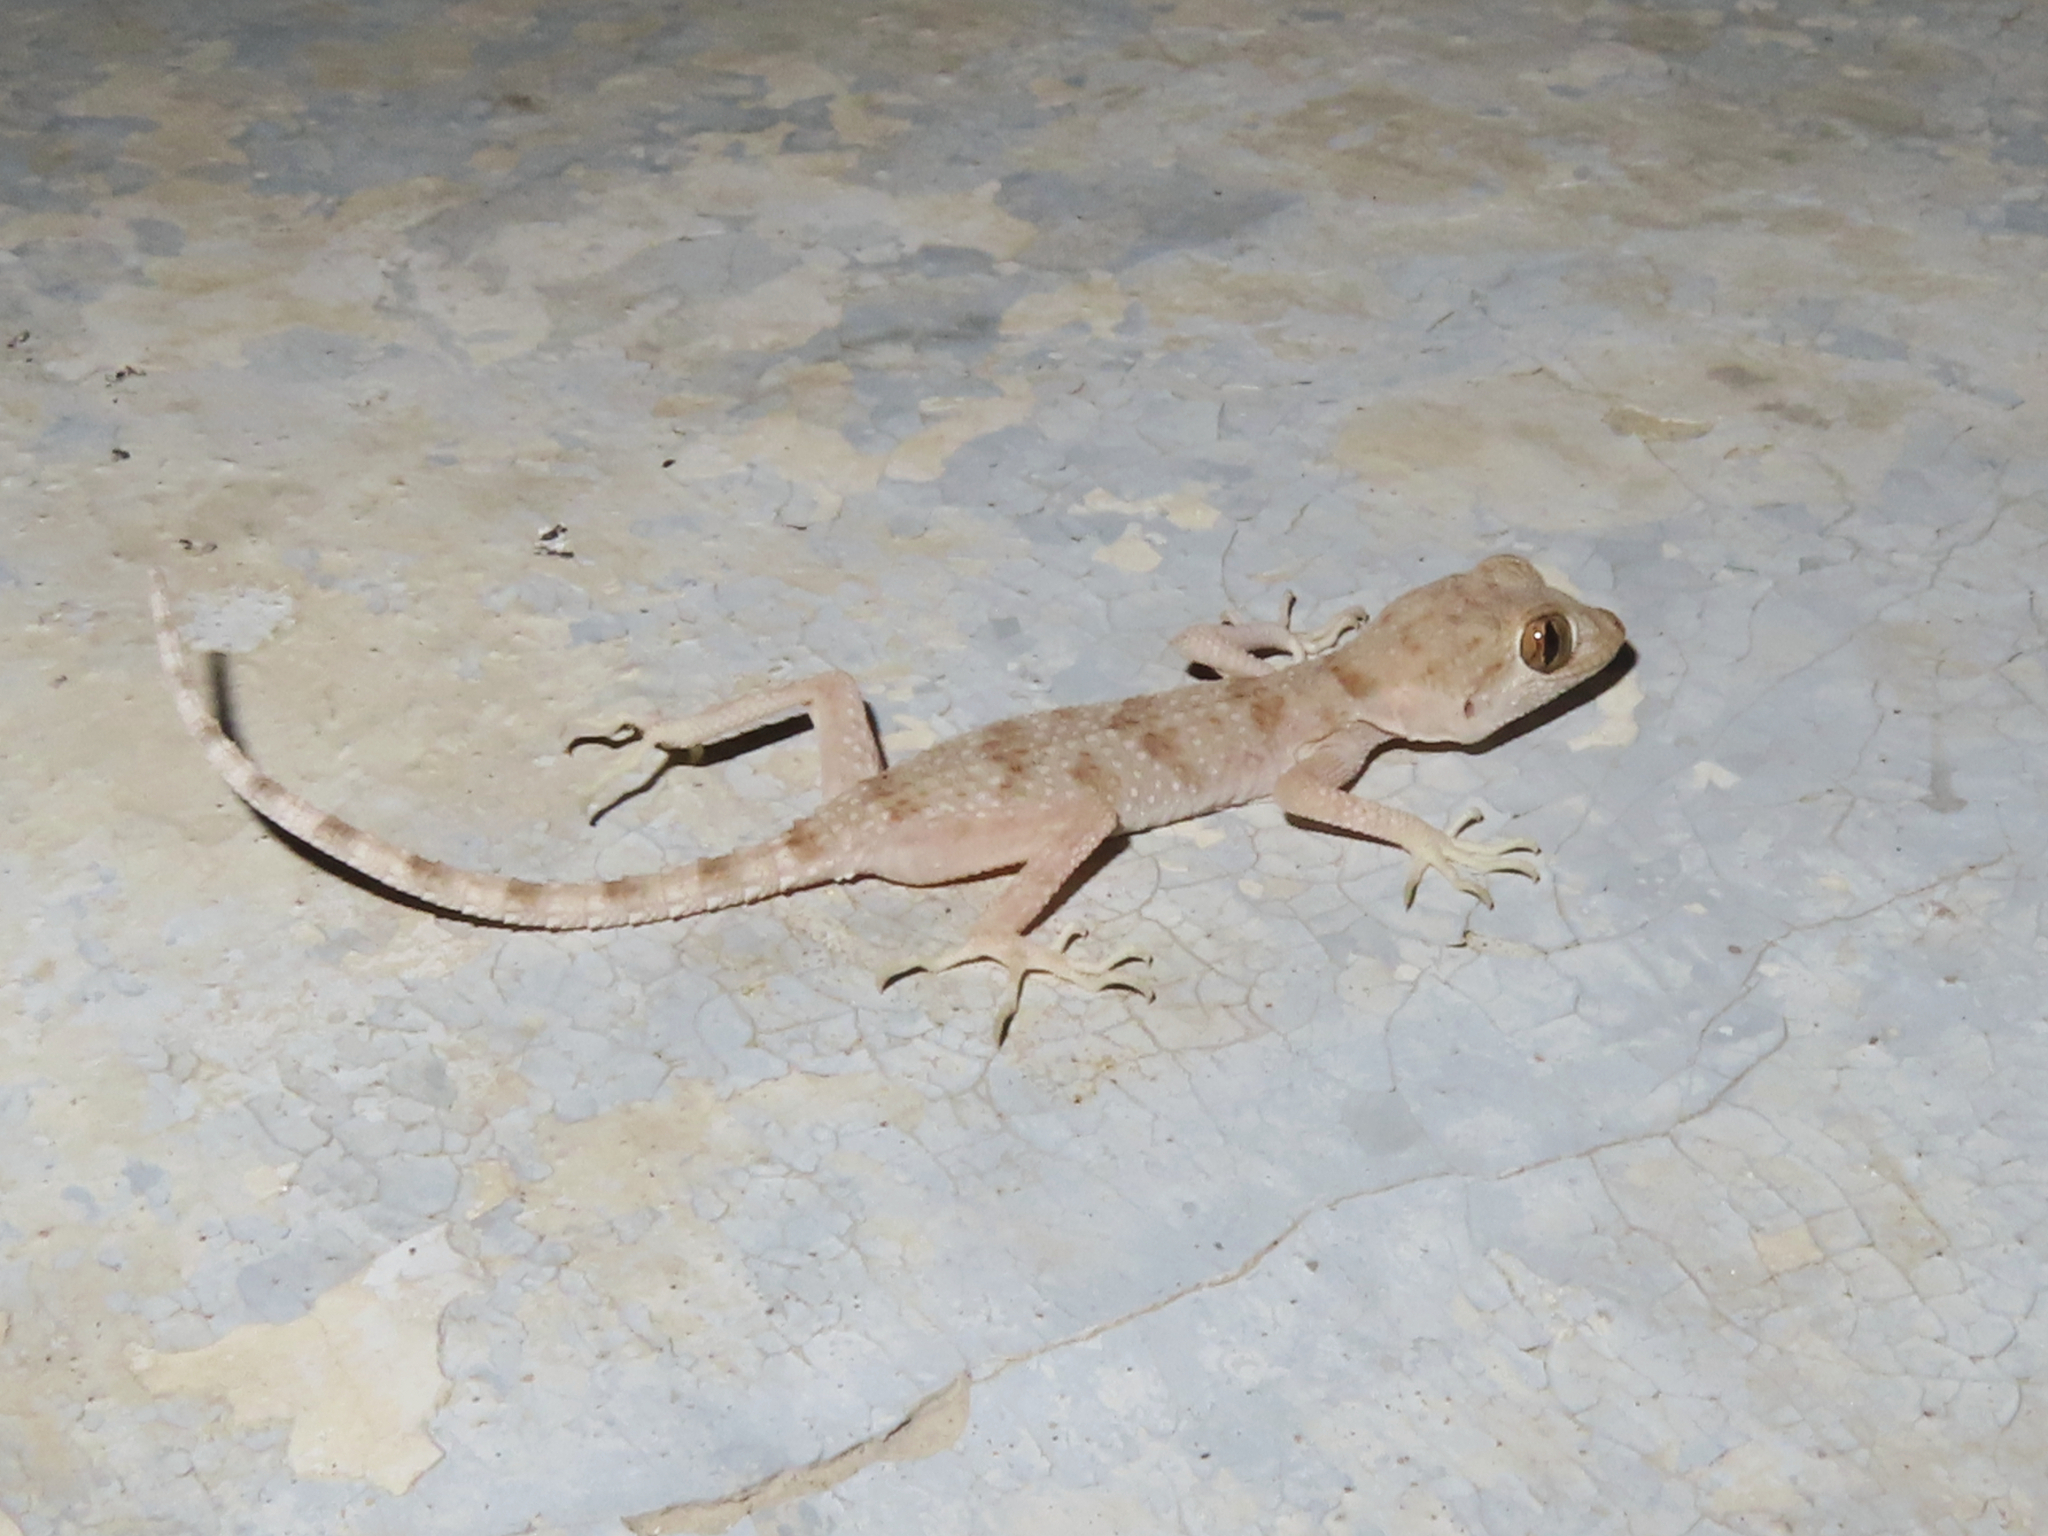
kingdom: Animalia
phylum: Chordata
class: Squamata
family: Gekkonidae
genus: Tenuidactylus
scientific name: Tenuidactylus caspius
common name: Caspian bent-toed gecko
